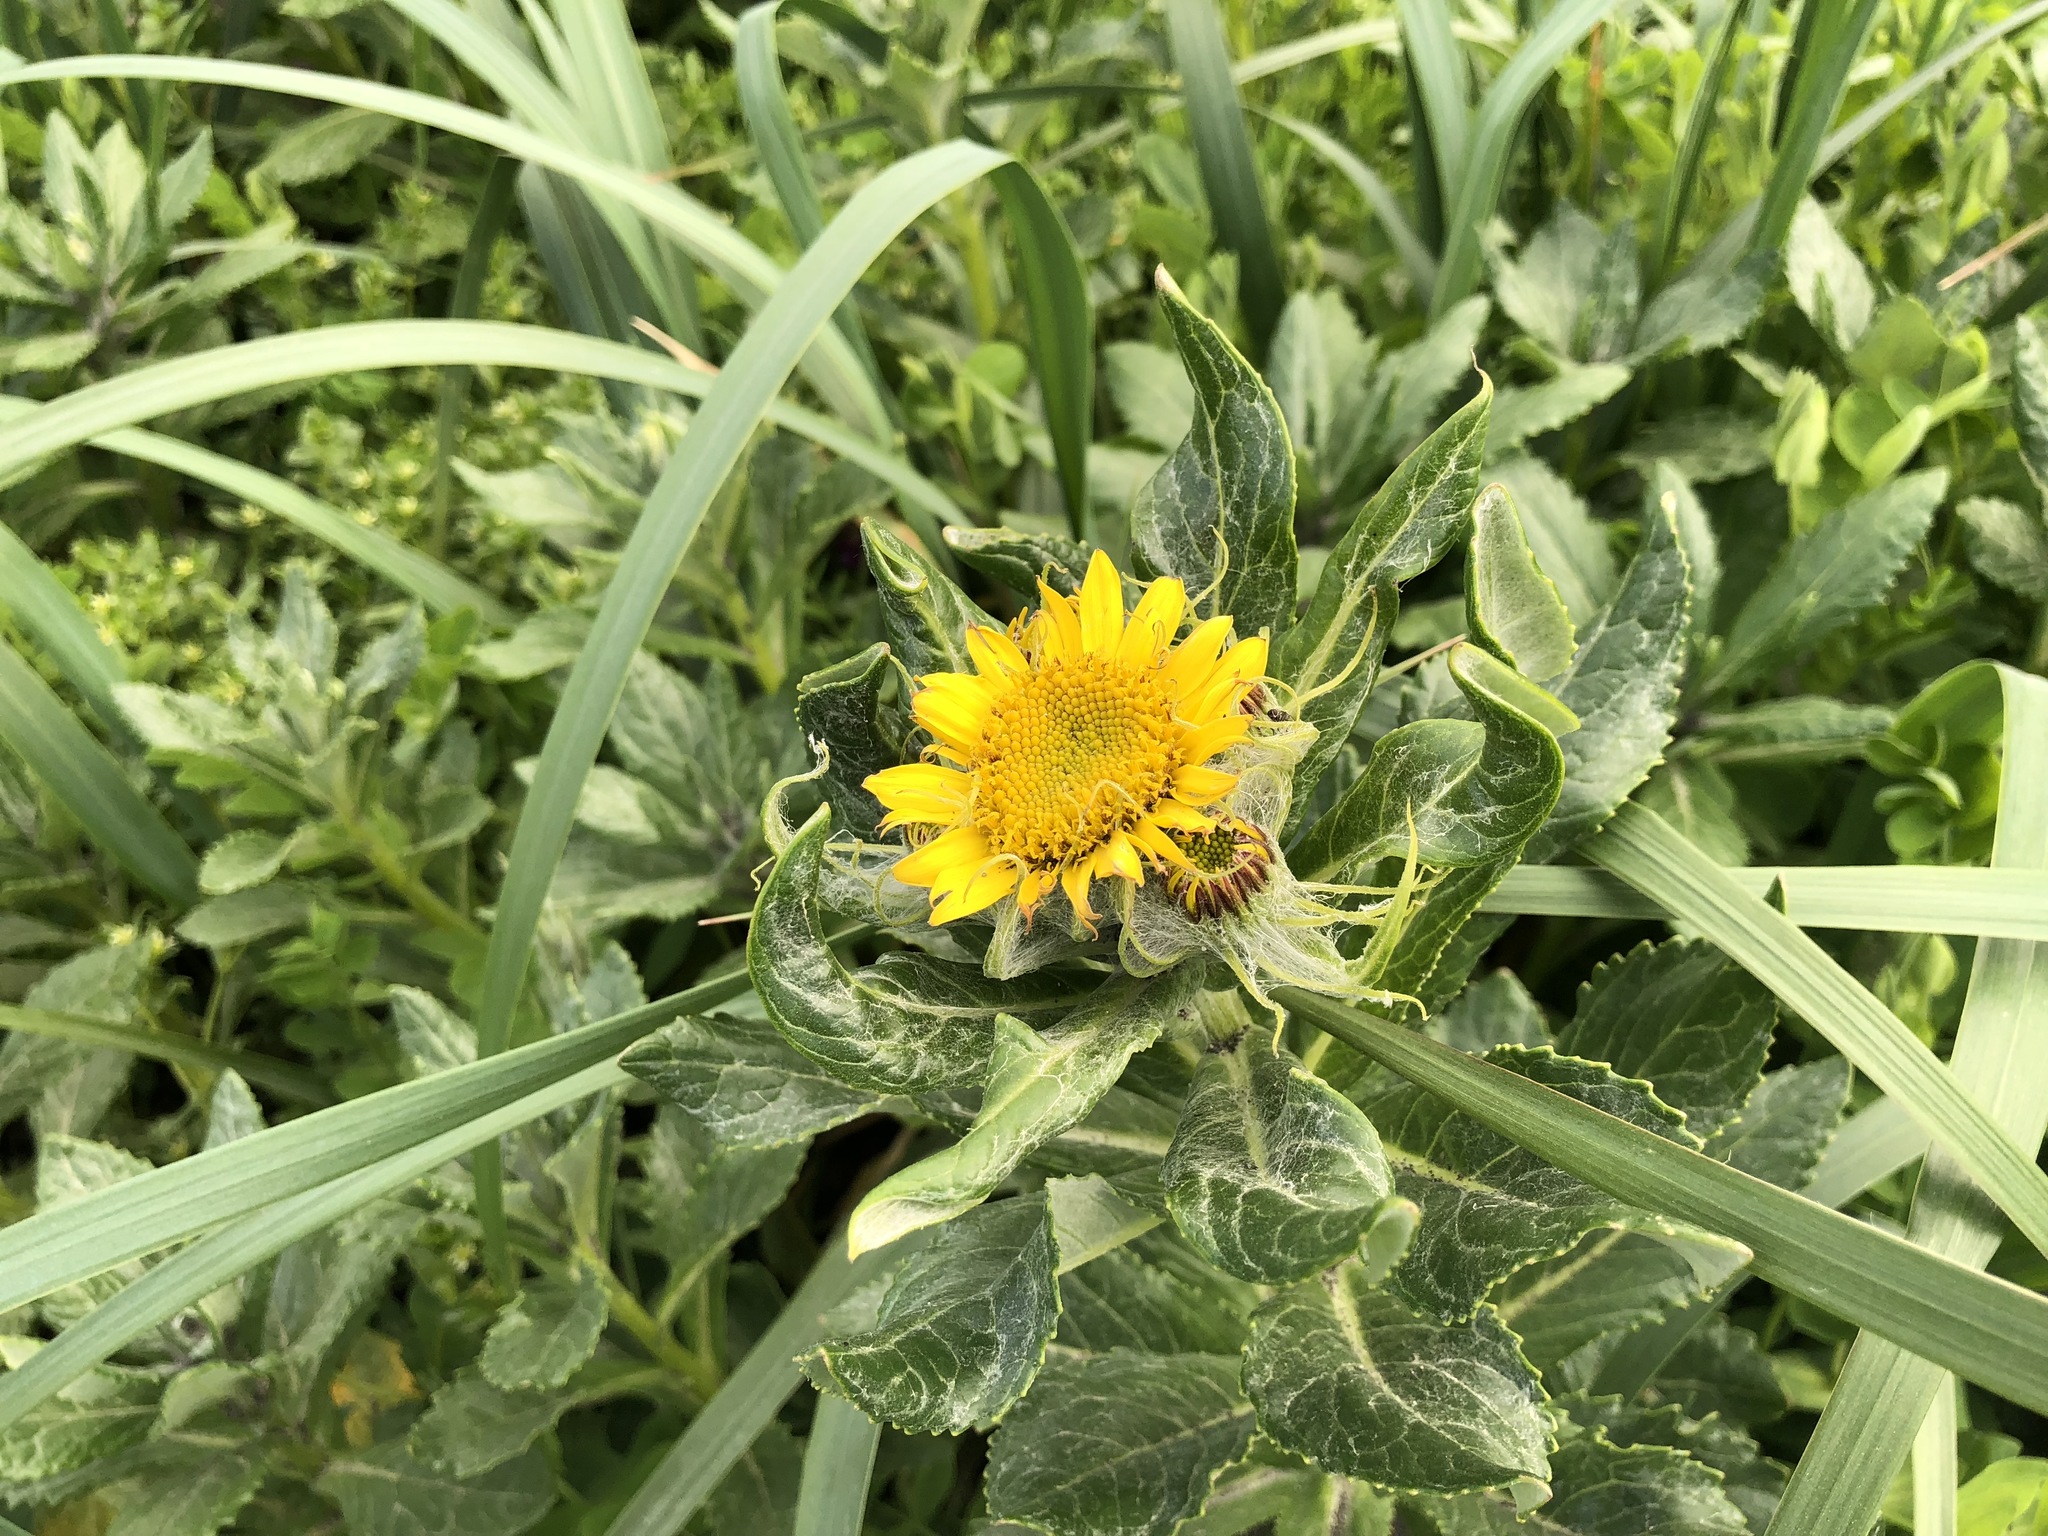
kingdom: Plantae
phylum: Tracheophyta
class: Magnoliopsida
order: Asterales
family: Asteraceae
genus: Jacobaea
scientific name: Jacobaea pseudoarnica
